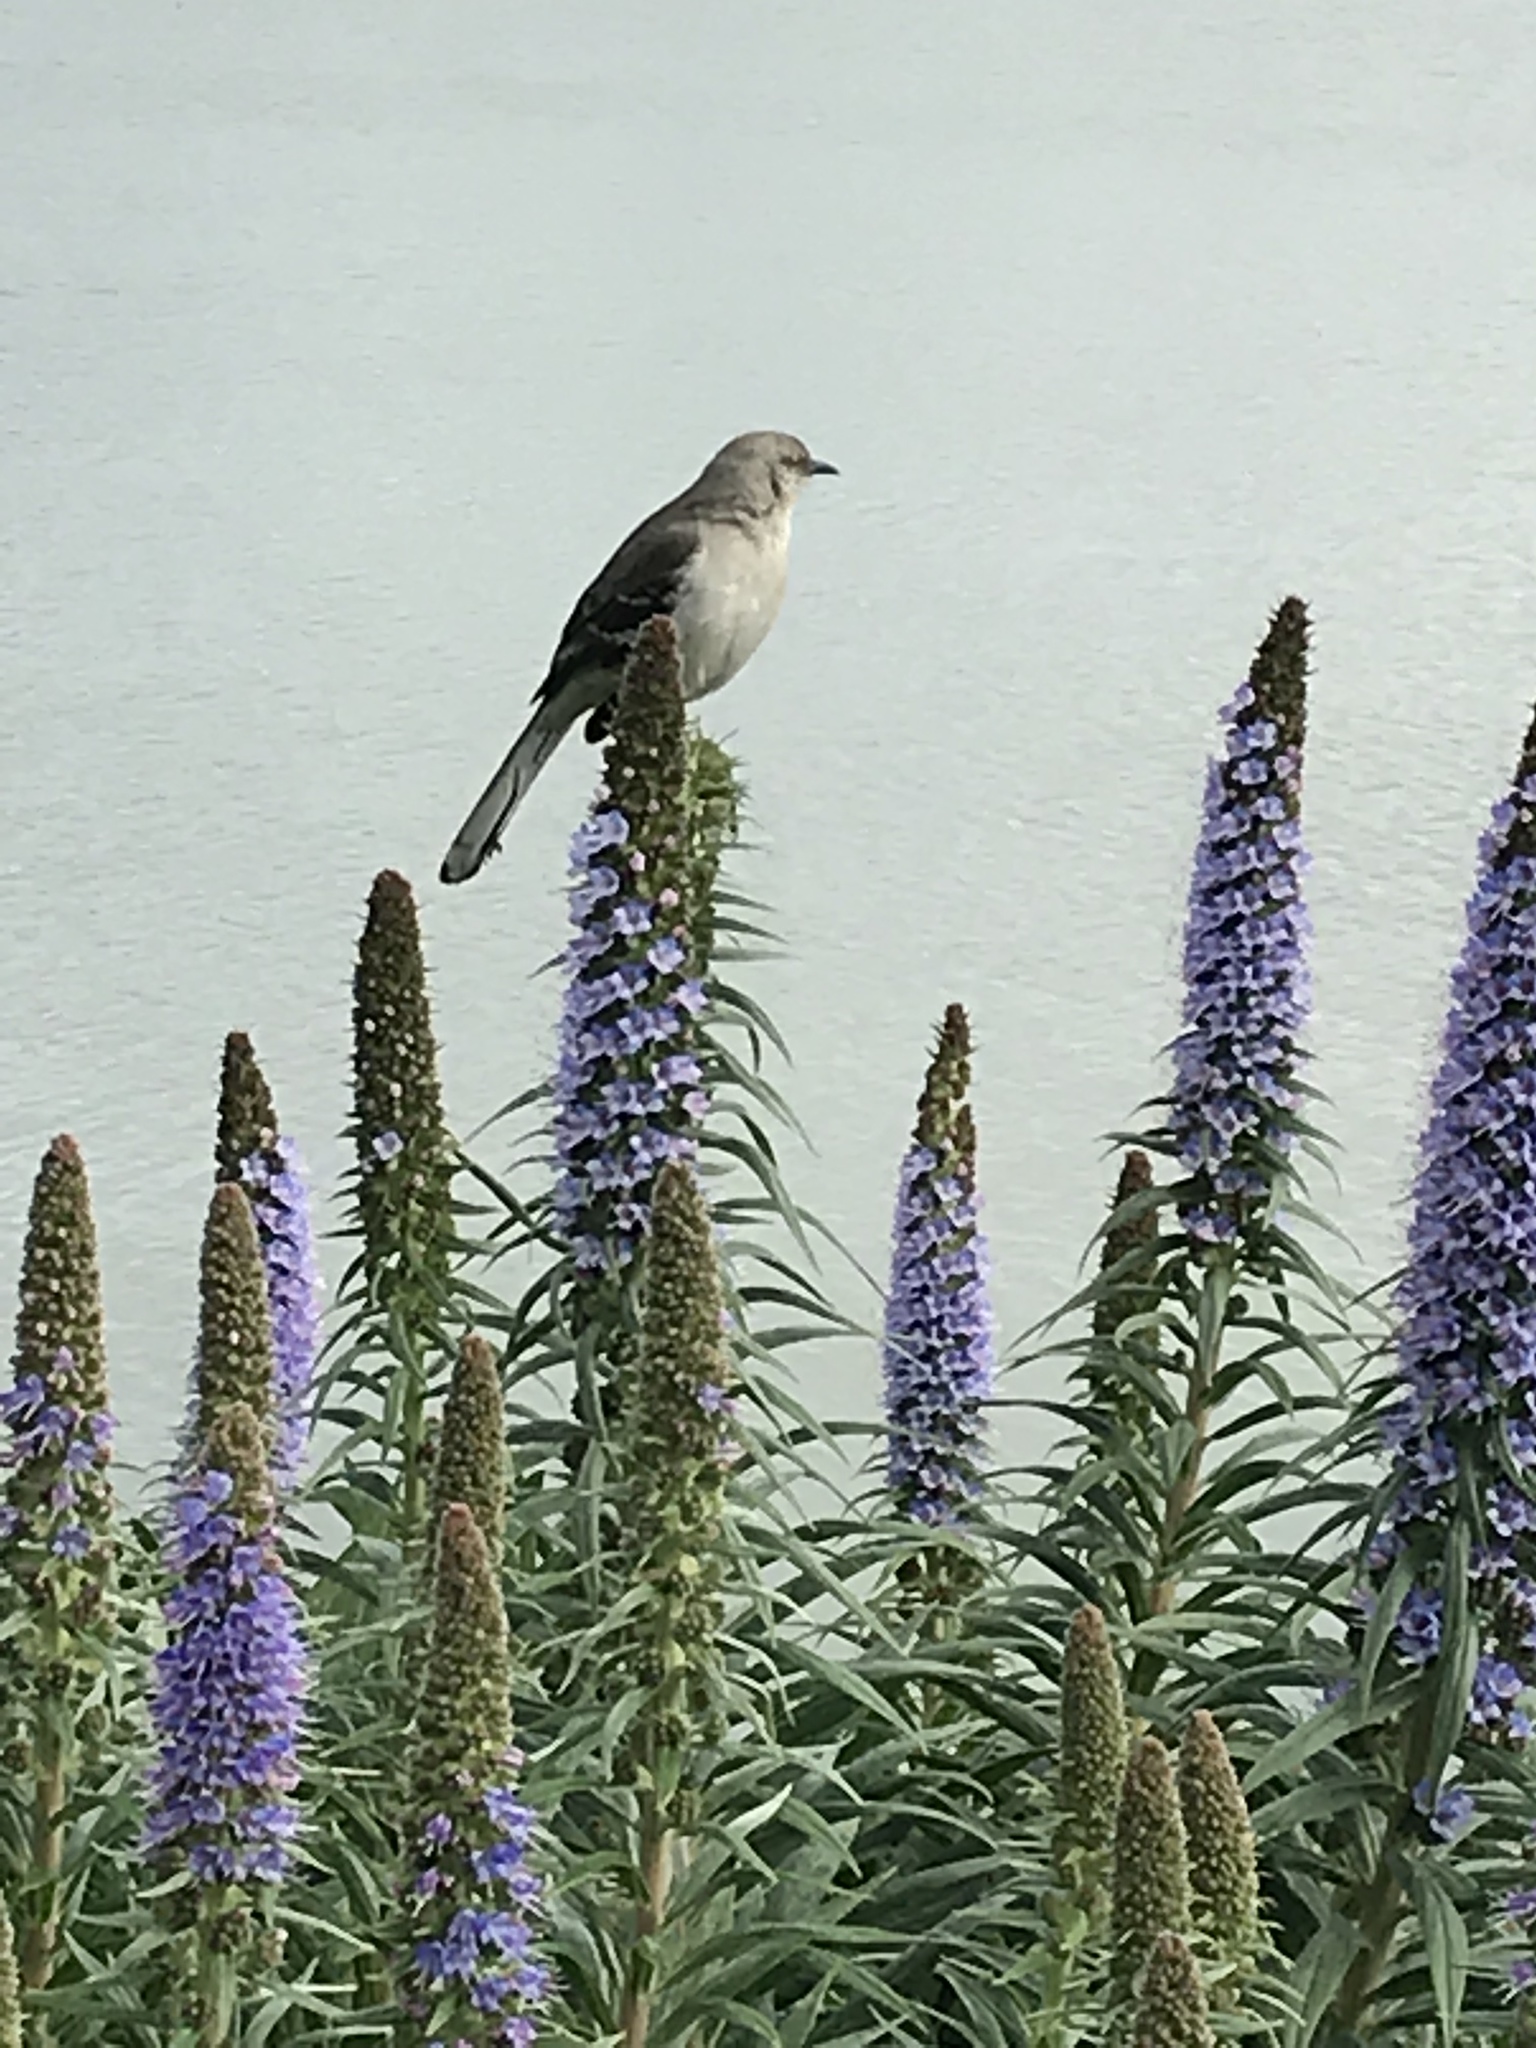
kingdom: Animalia
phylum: Chordata
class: Aves
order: Passeriformes
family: Mimidae
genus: Mimus
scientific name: Mimus polyglottos
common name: Northern mockingbird
